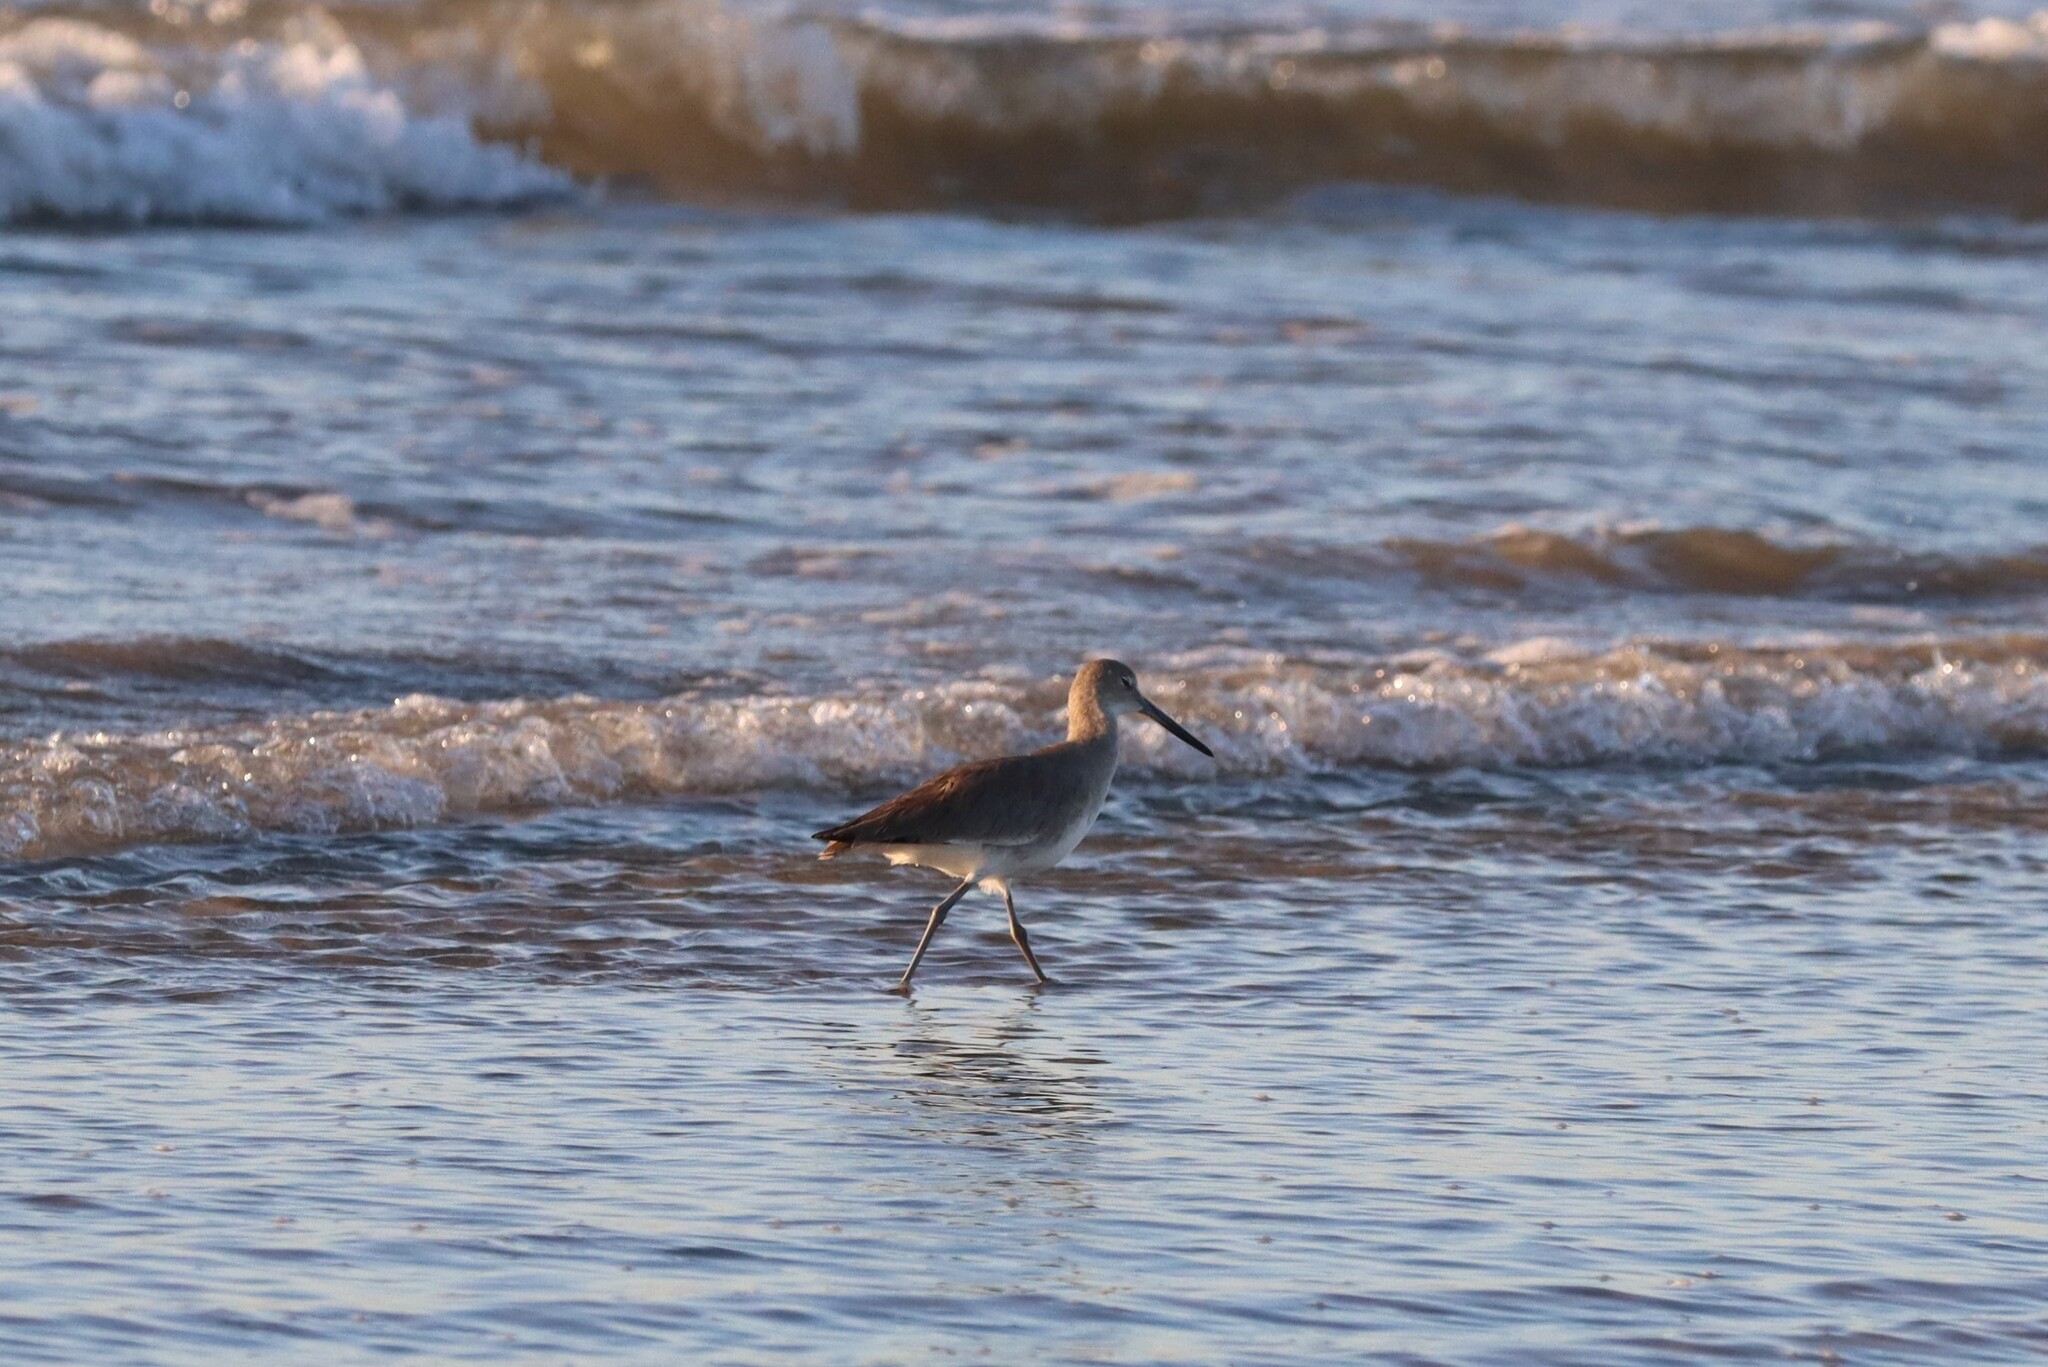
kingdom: Animalia
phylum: Chordata
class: Aves
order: Charadriiformes
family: Scolopacidae
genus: Tringa
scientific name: Tringa semipalmata
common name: Willet
